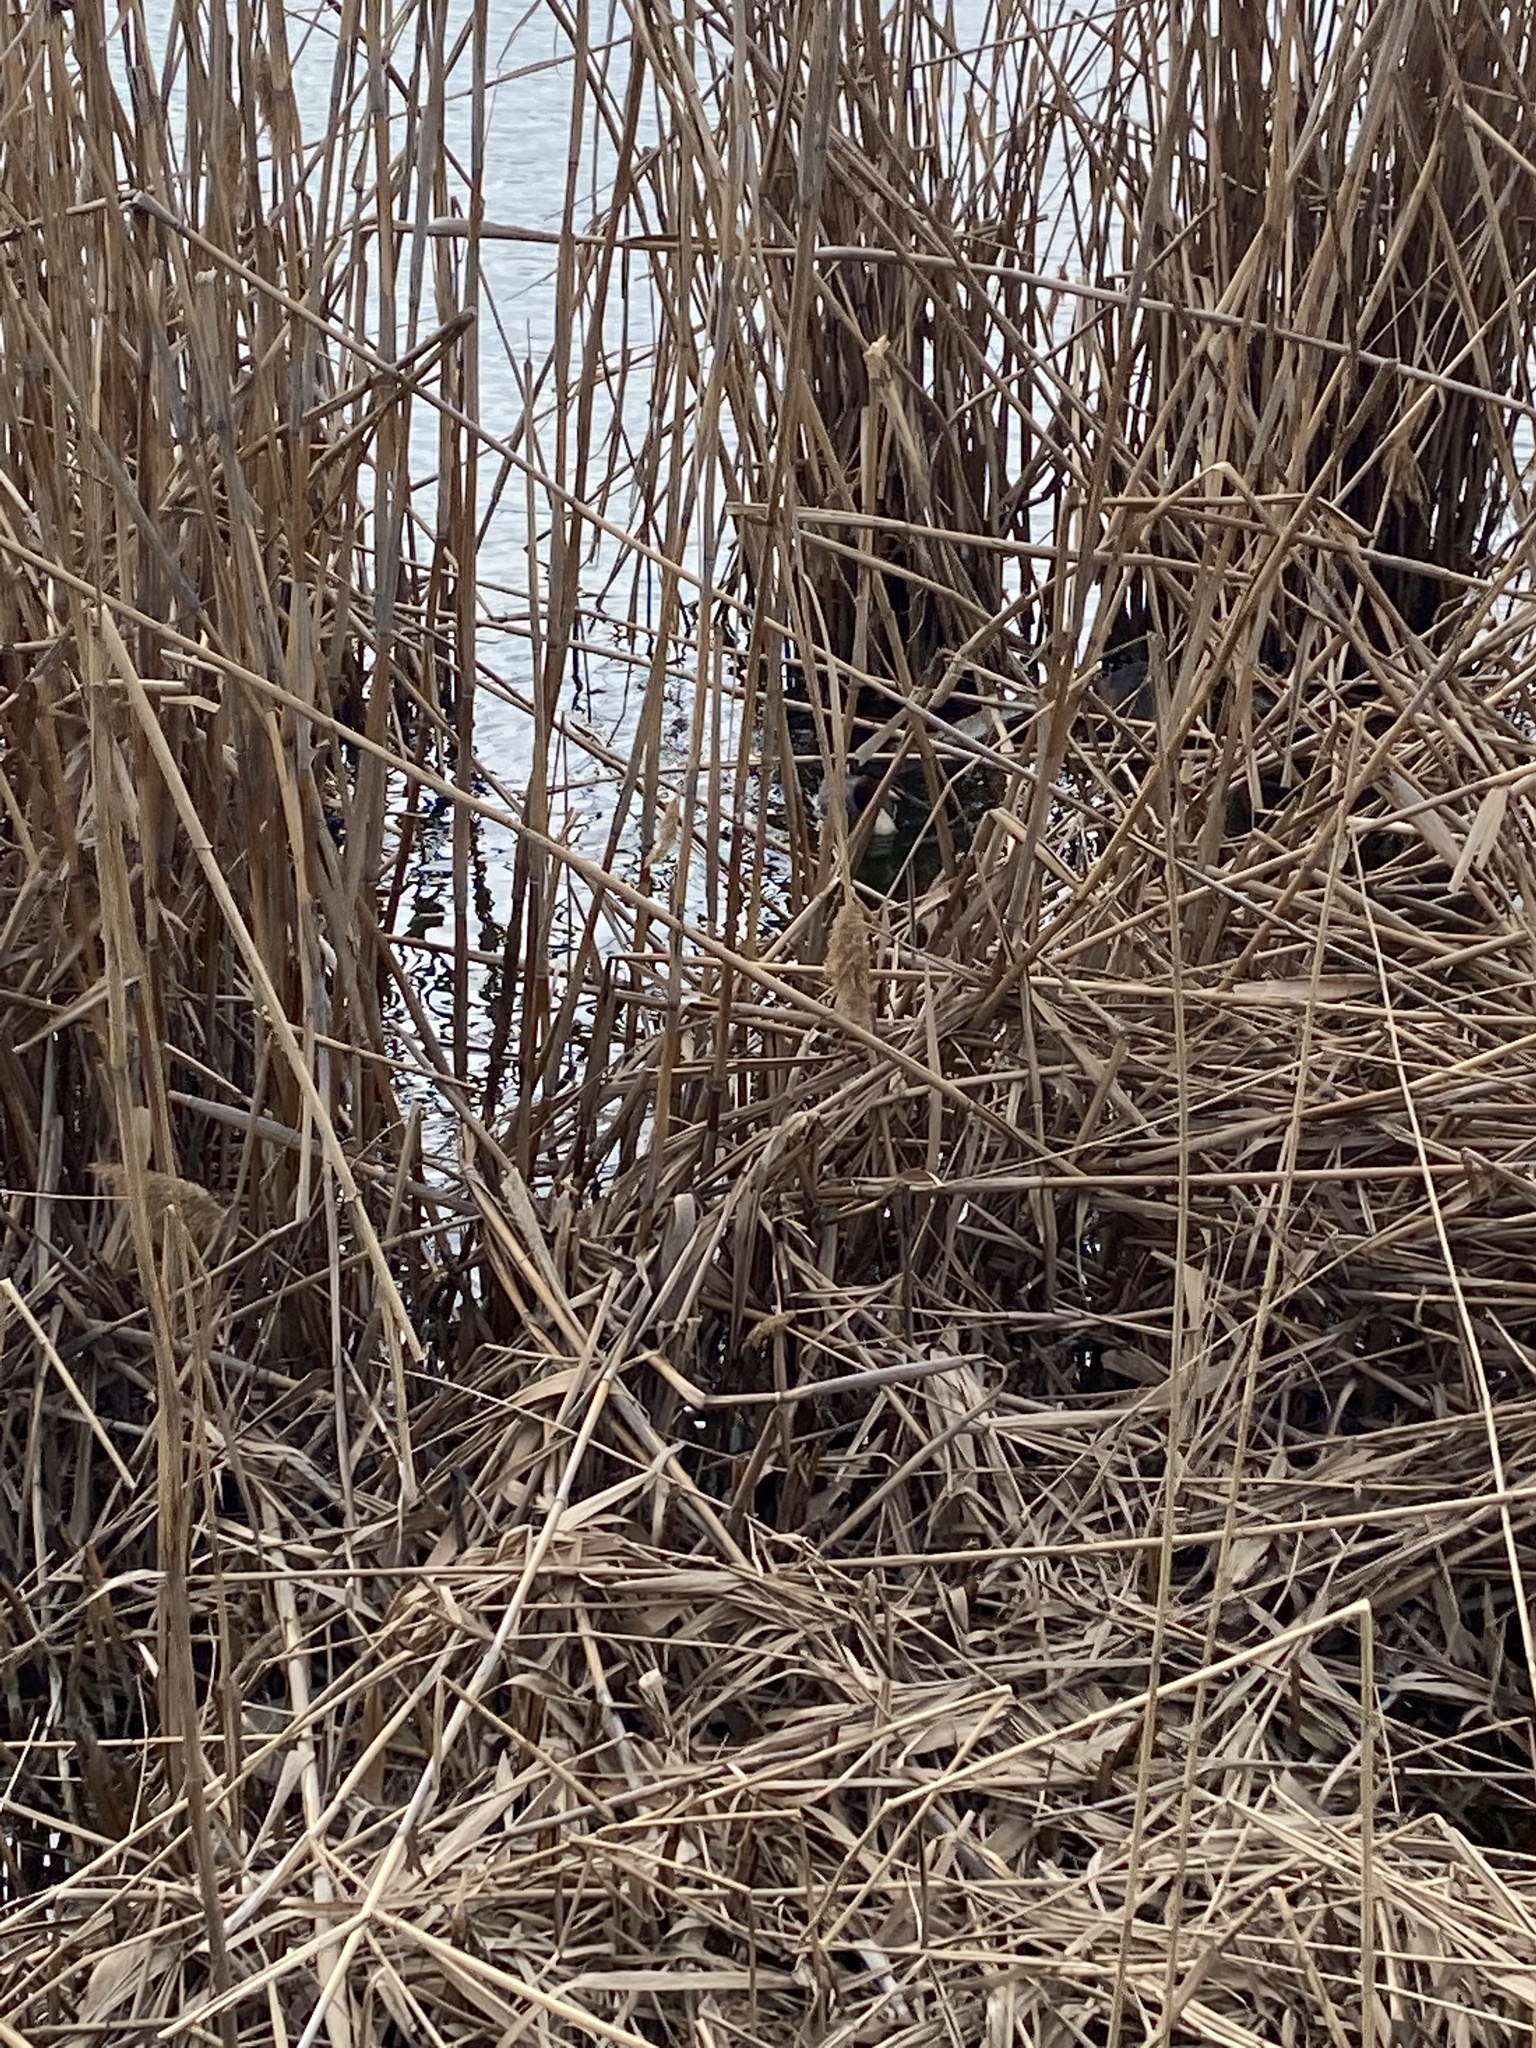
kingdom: Animalia
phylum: Chordata
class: Aves
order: Podicipediformes
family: Podicipedidae
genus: Podiceps
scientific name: Podiceps cristatus
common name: Great crested grebe
